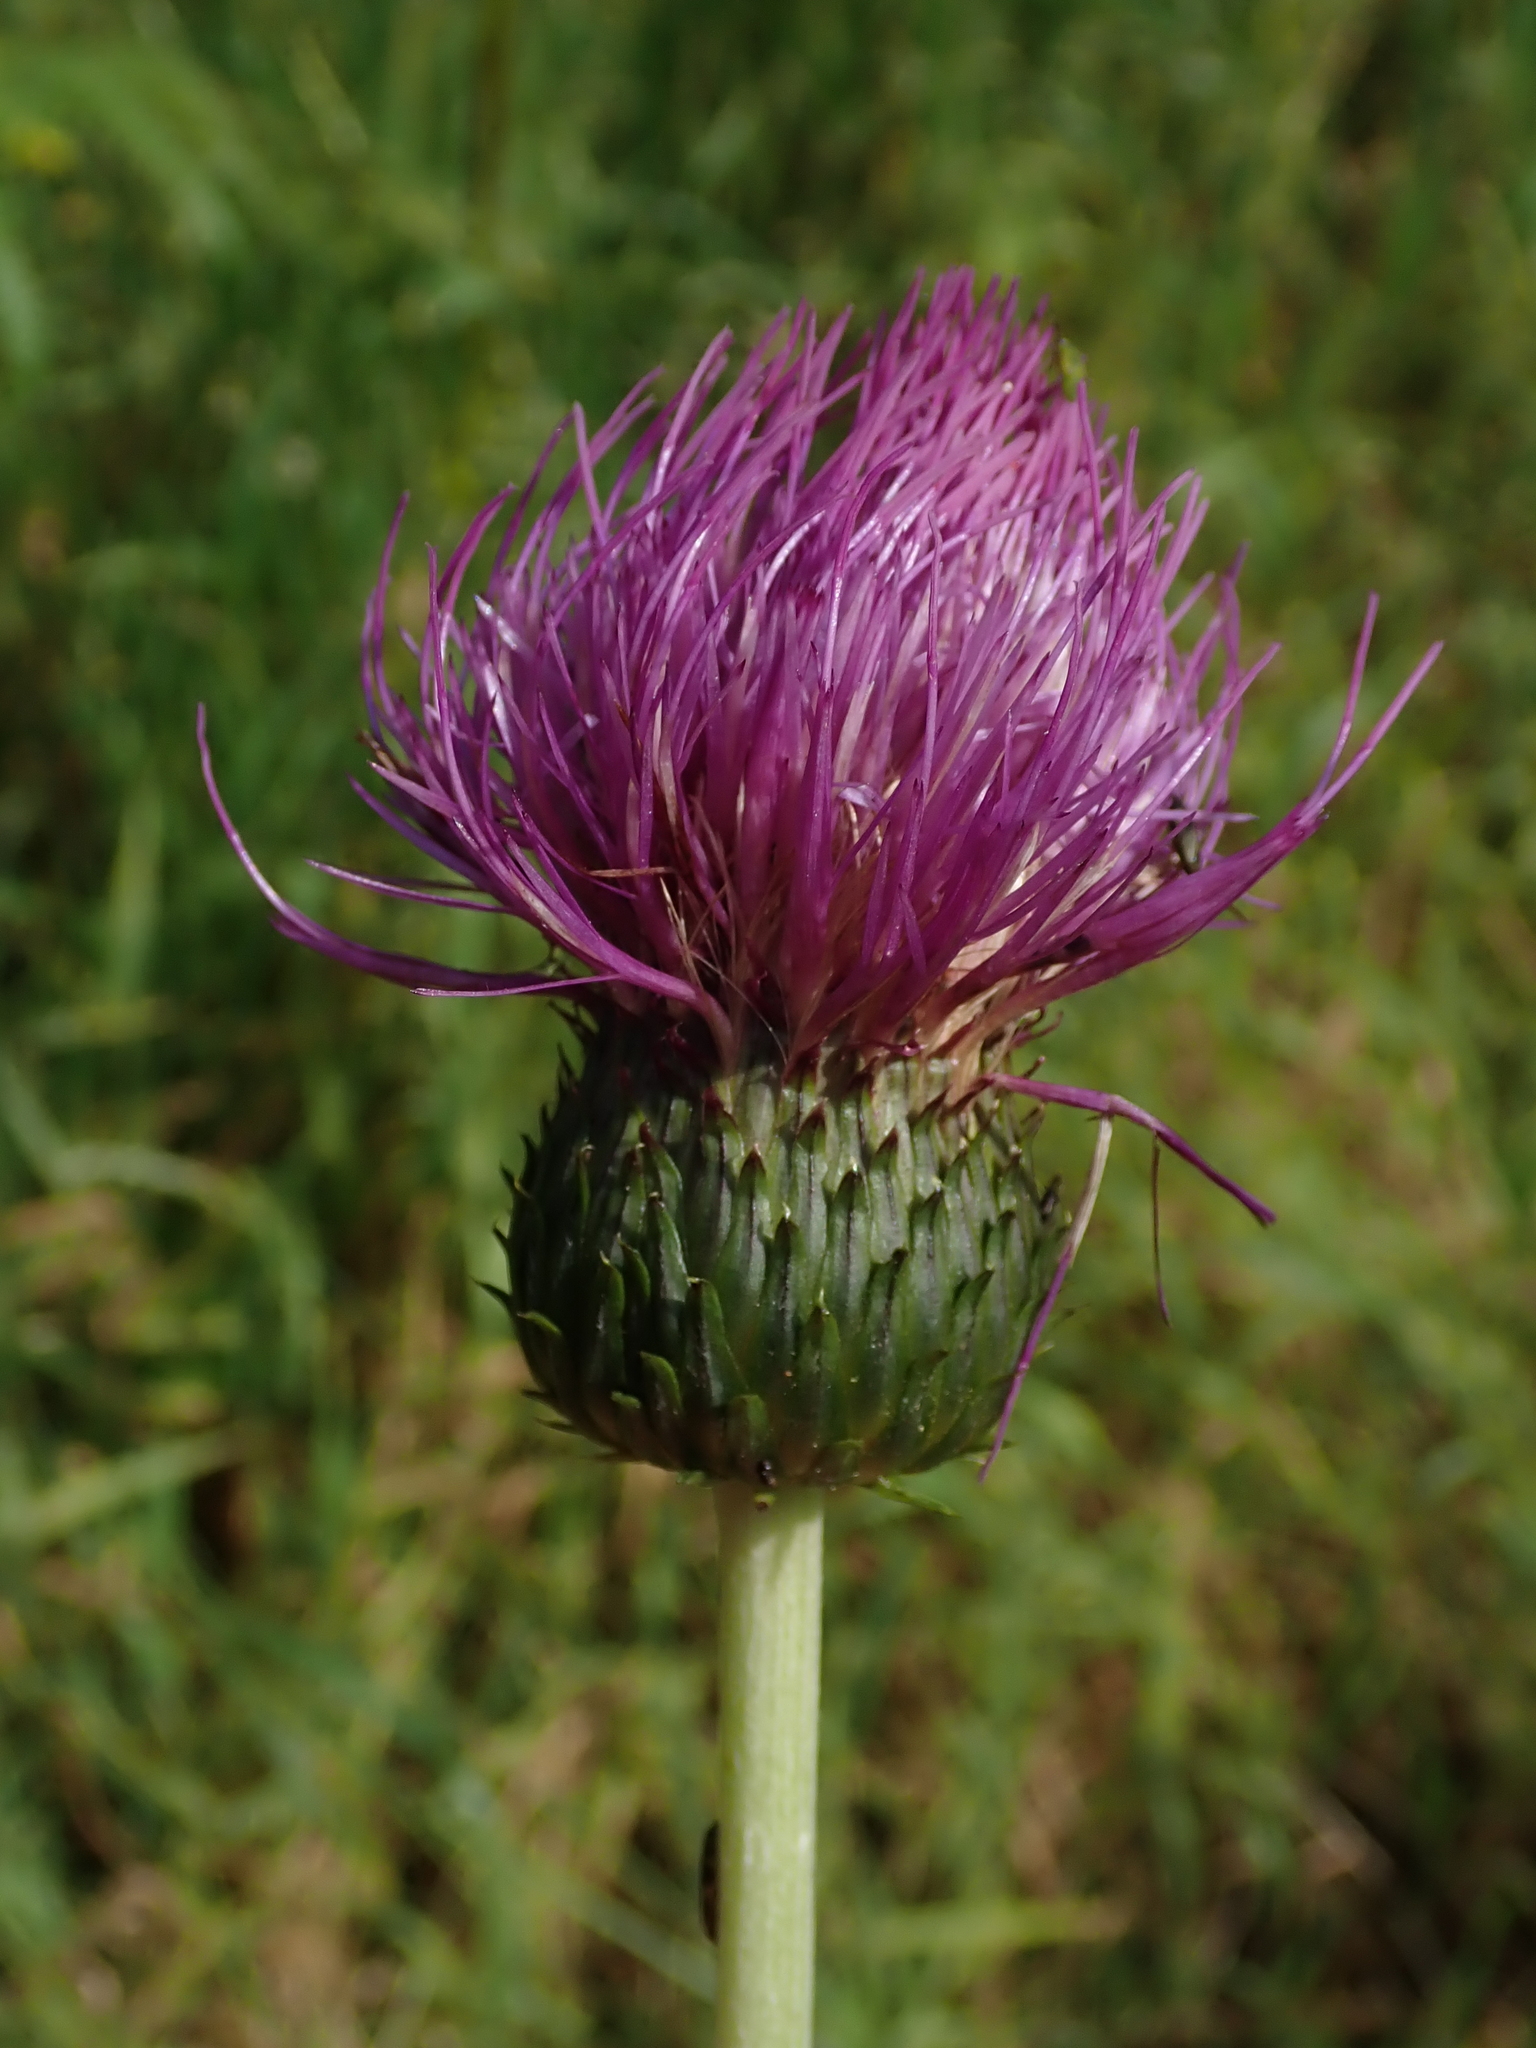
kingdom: Plantae
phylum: Tracheophyta
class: Magnoliopsida
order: Asterales
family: Asteraceae
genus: Cirsium
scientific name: Cirsium heterophyllum
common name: Melancholy thistle
